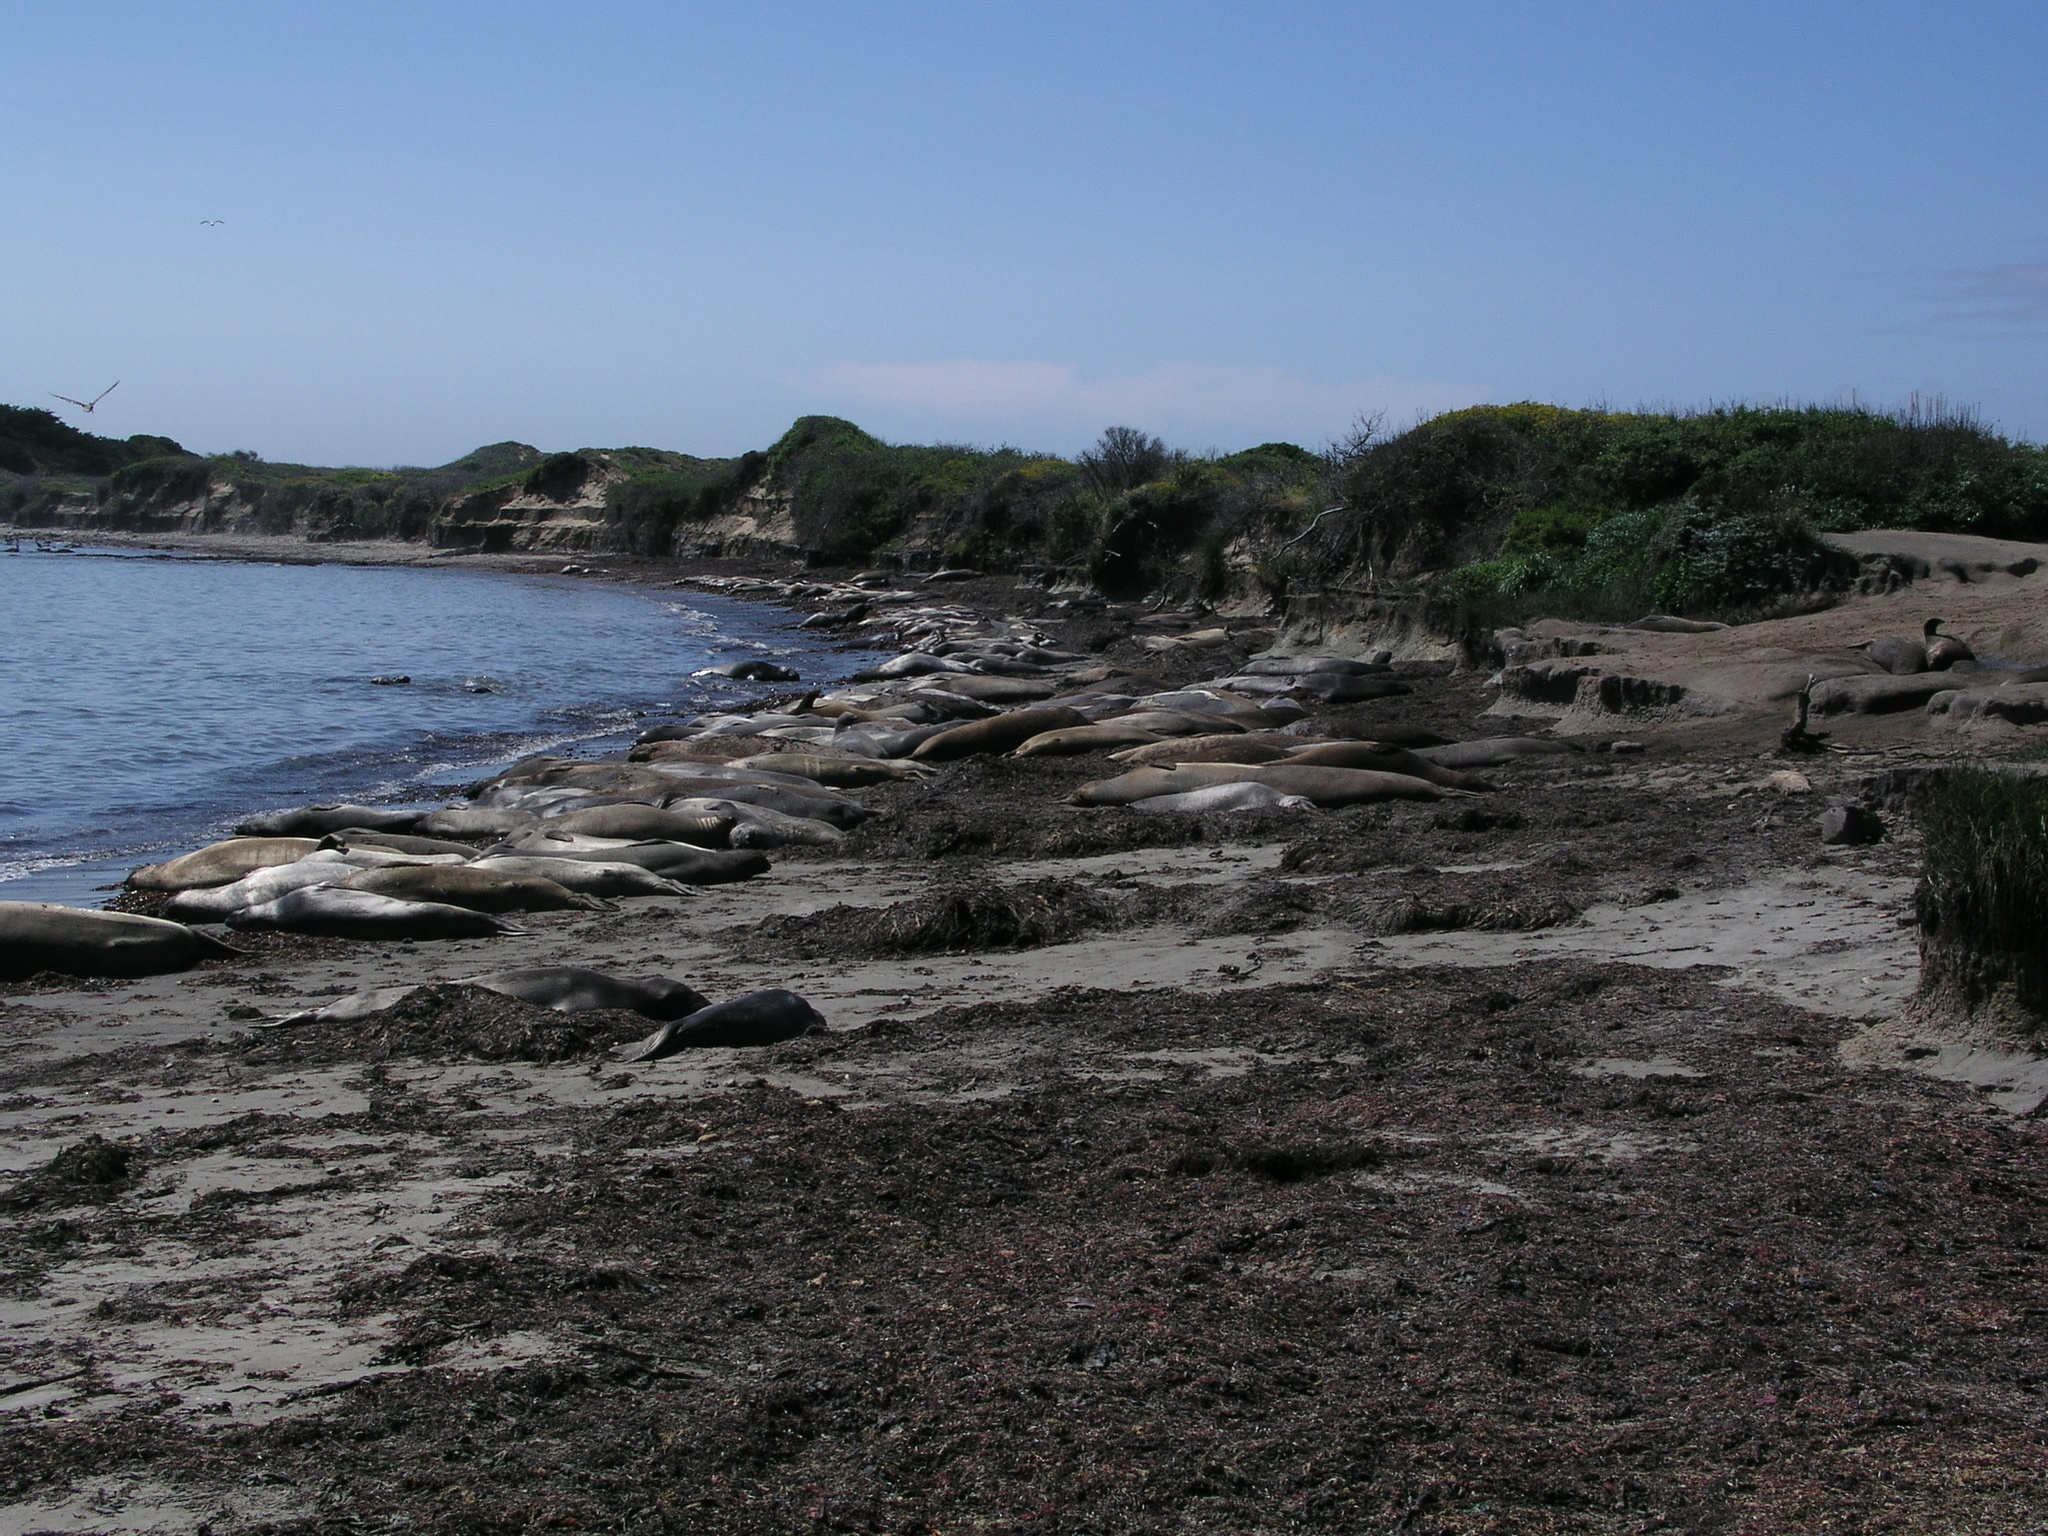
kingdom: Animalia
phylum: Chordata
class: Mammalia
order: Carnivora
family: Phocidae
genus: Mirounga
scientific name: Mirounga angustirostris
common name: Northern elephant seal
